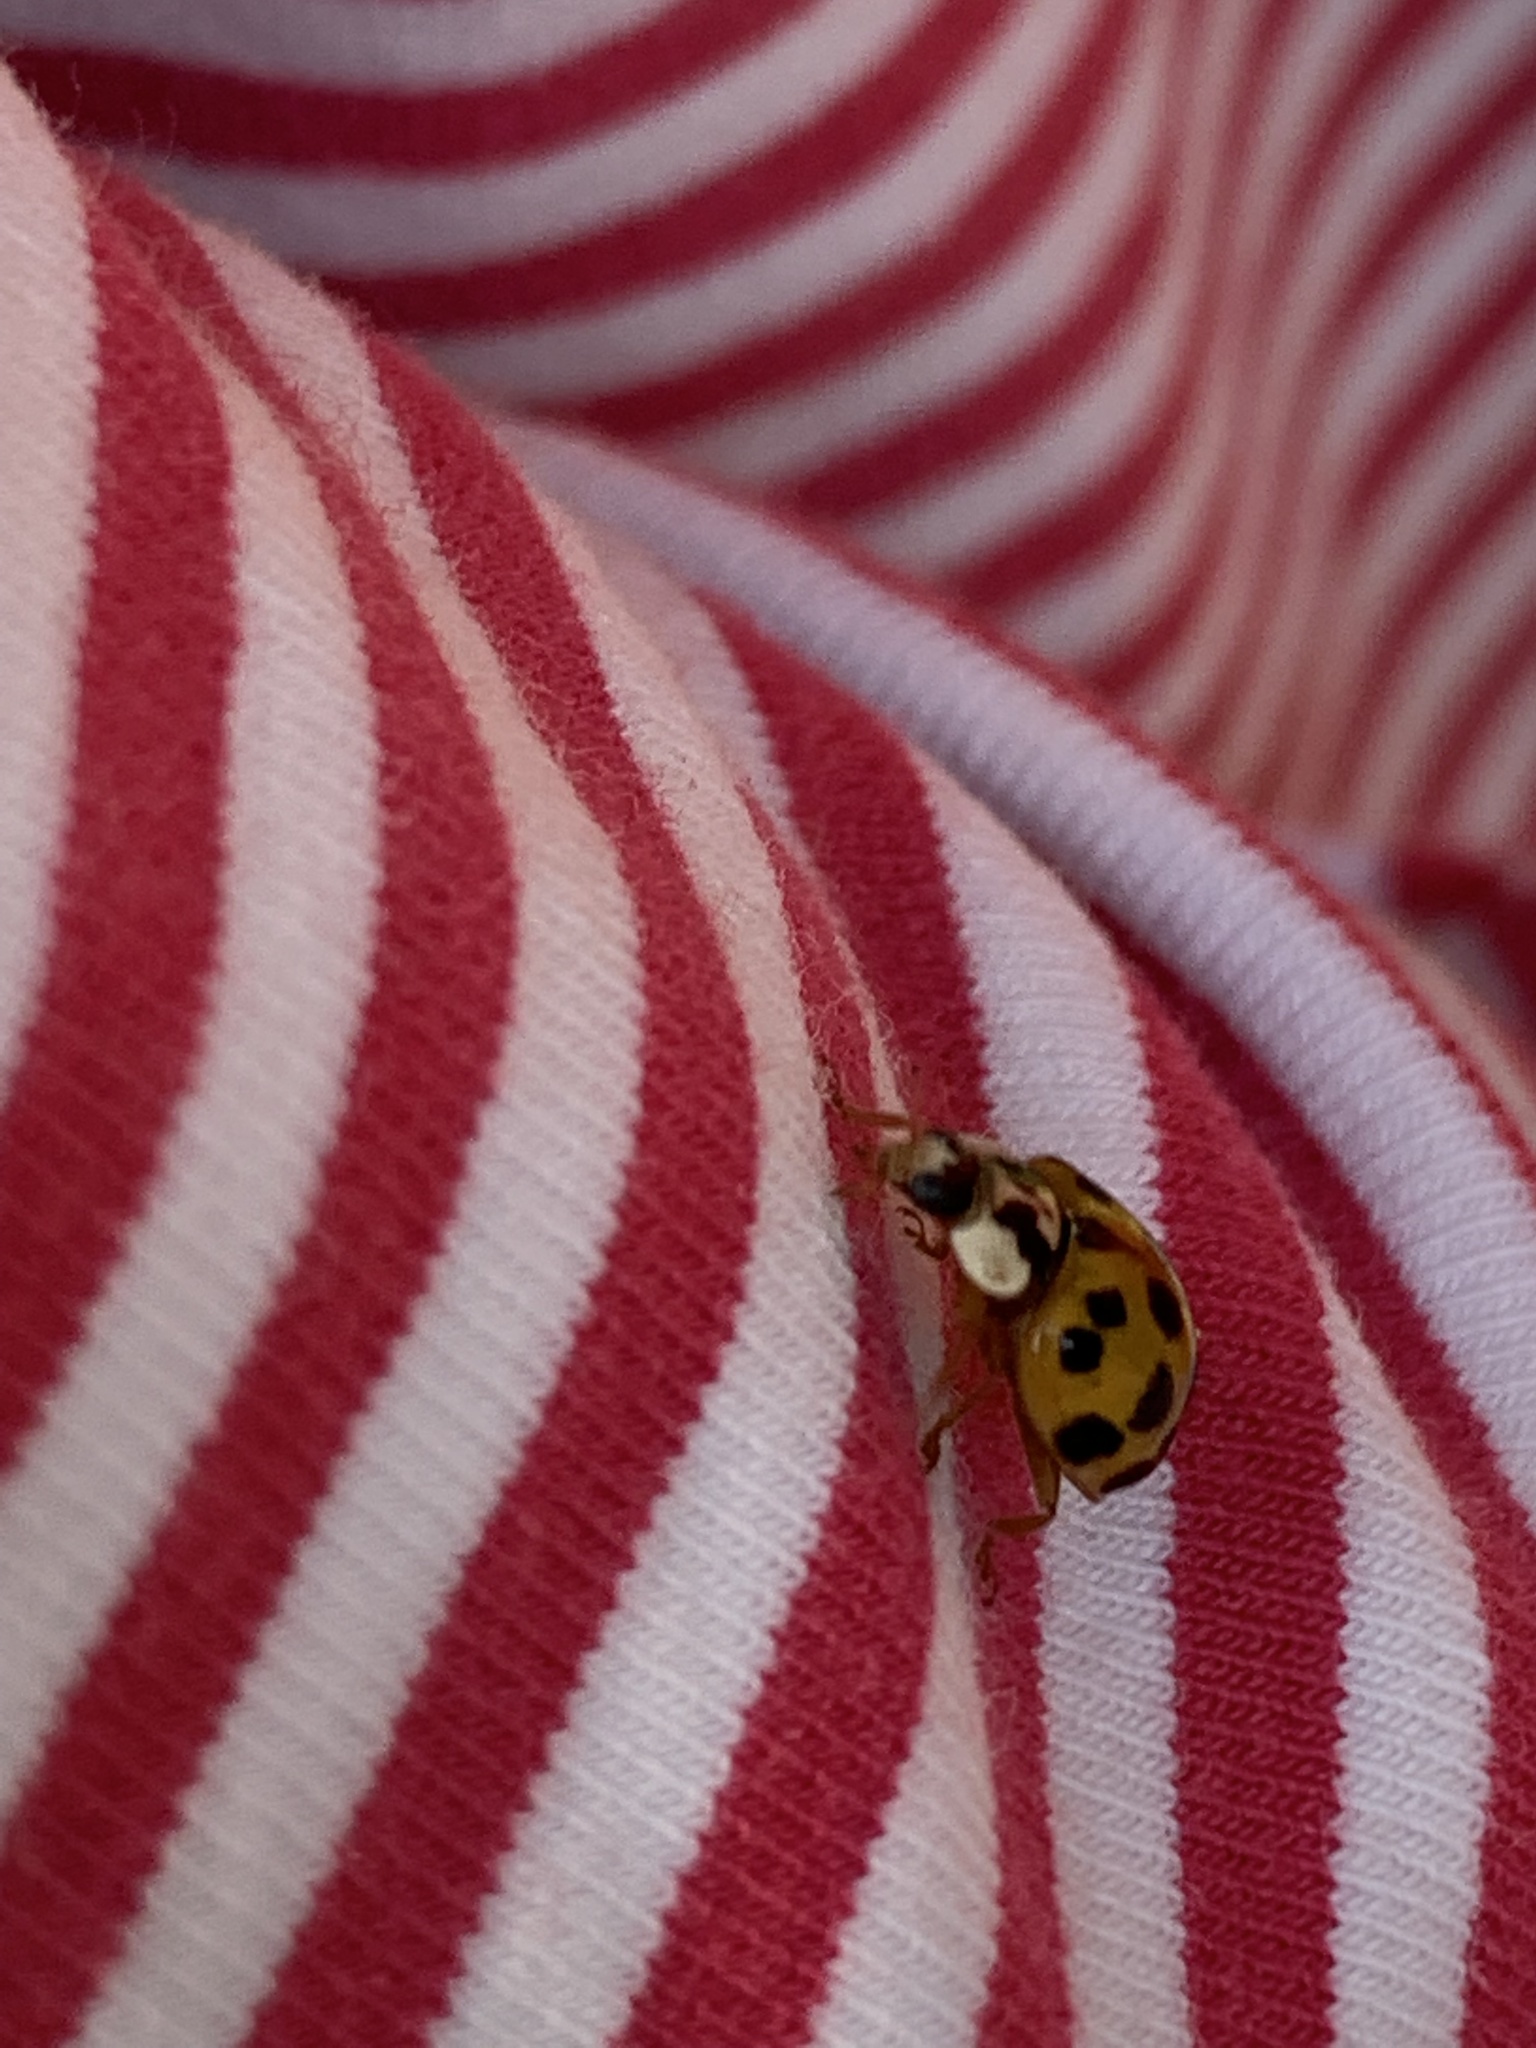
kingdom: Animalia
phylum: Arthropoda
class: Insecta
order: Coleoptera
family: Coccinellidae
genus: Harmonia
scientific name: Harmonia axyridis
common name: Harlequin ladybird
